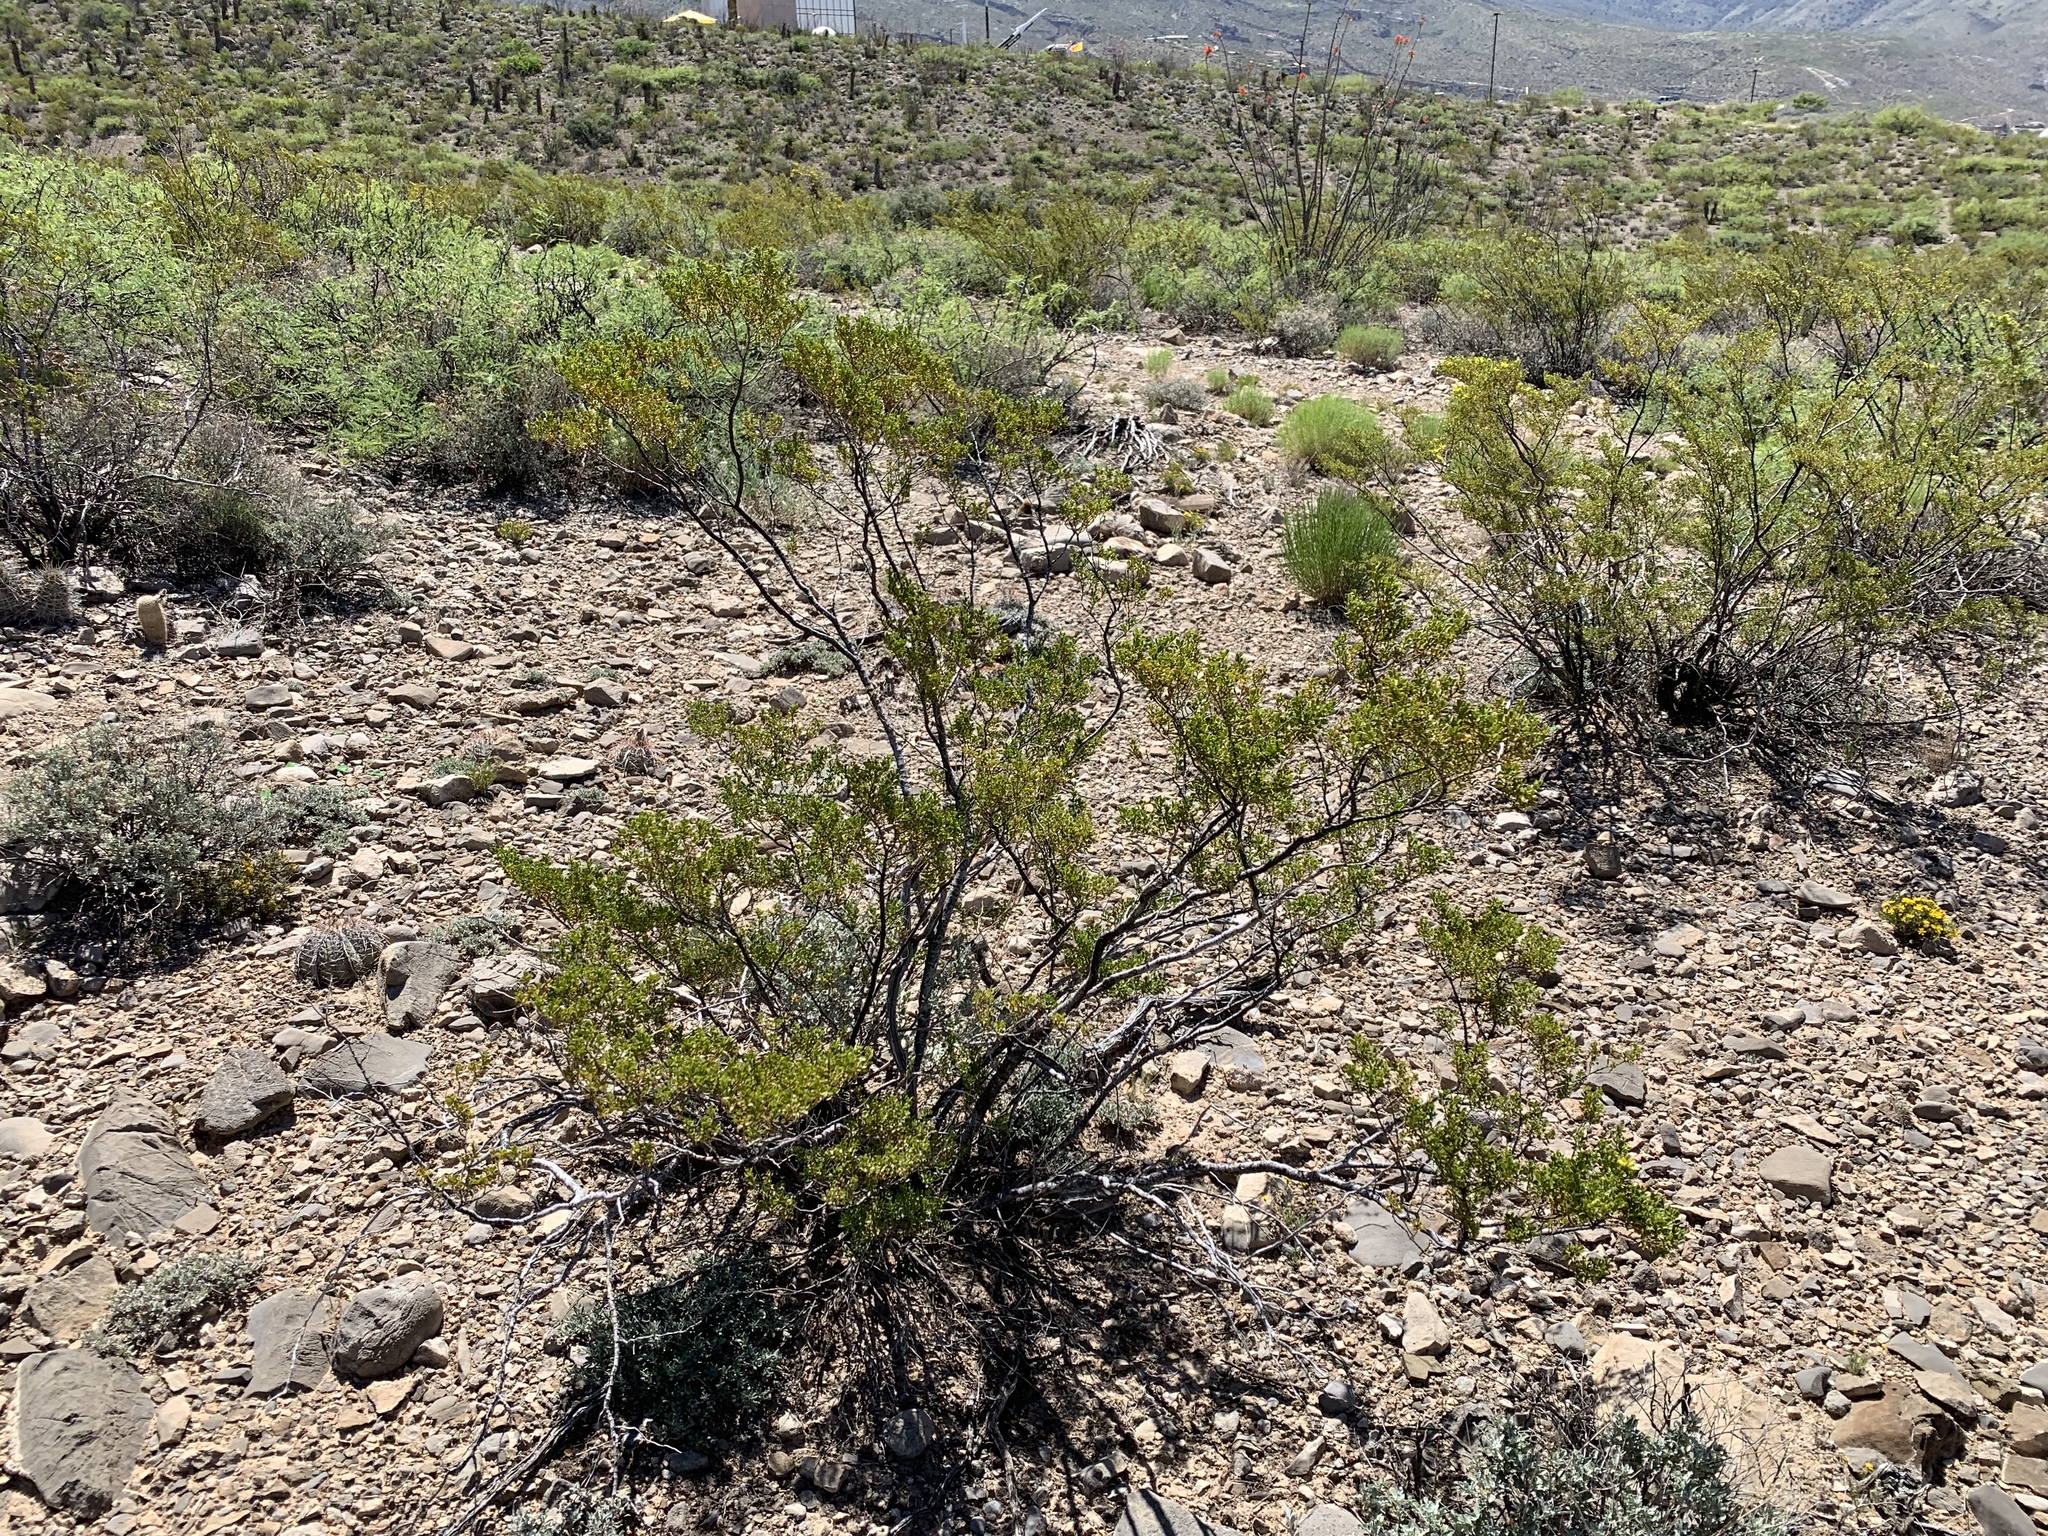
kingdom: Plantae
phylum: Tracheophyta
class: Magnoliopsida
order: Zygophyllales
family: Zygophyllaceae
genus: Larrea
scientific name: Larrea tridentata
